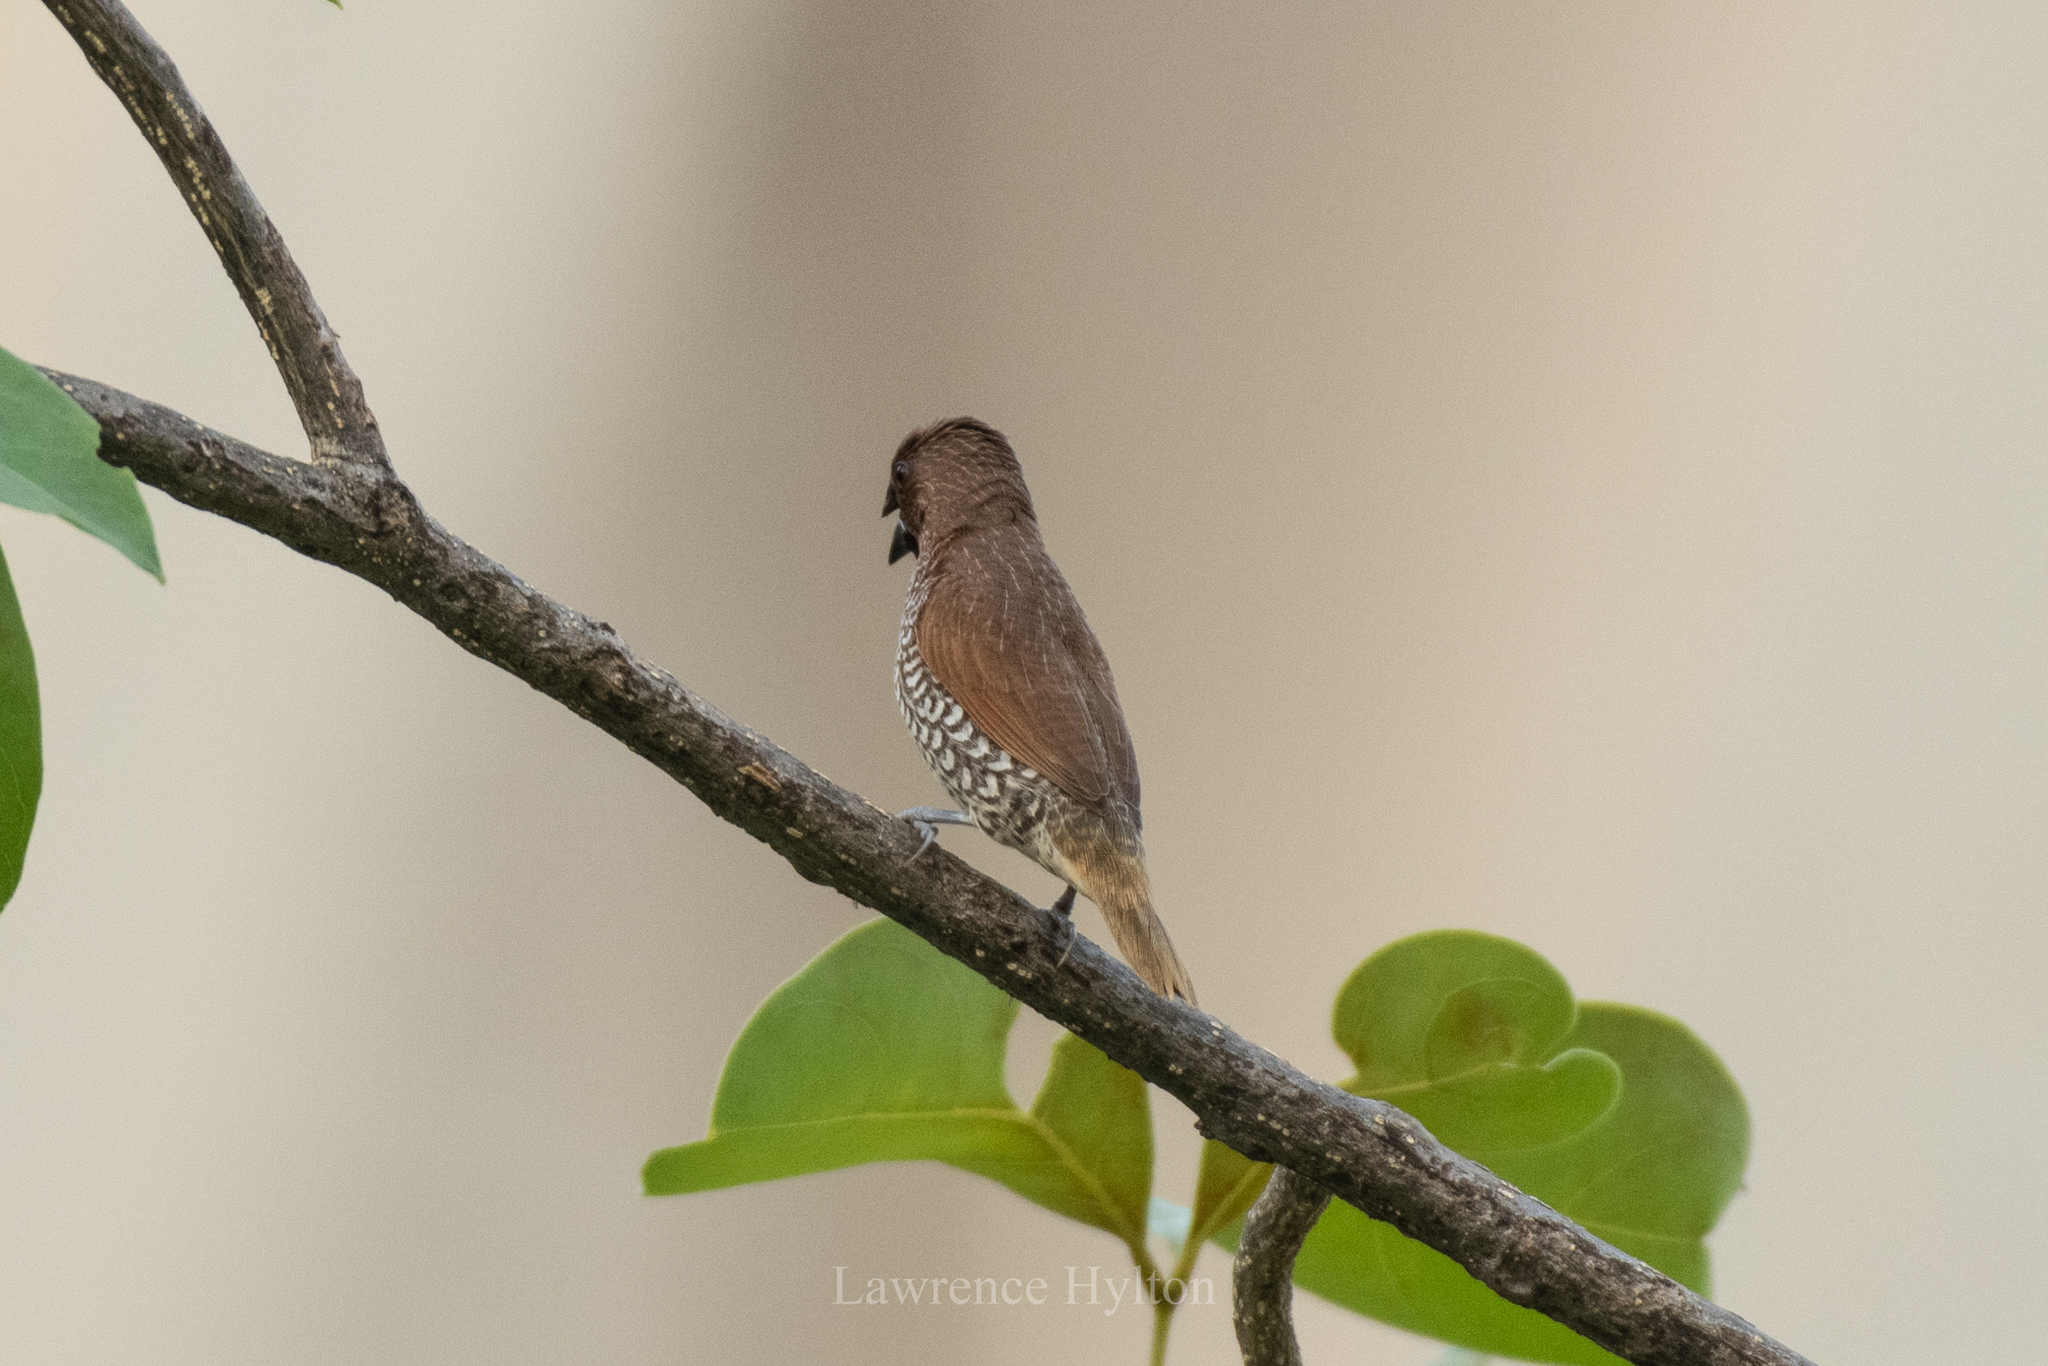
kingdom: Animalia
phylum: Chordata
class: Aves
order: Passeriformes
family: Estrildidae
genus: Lonchura
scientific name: Lonchura punctulata
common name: Scaly-breasted munia
